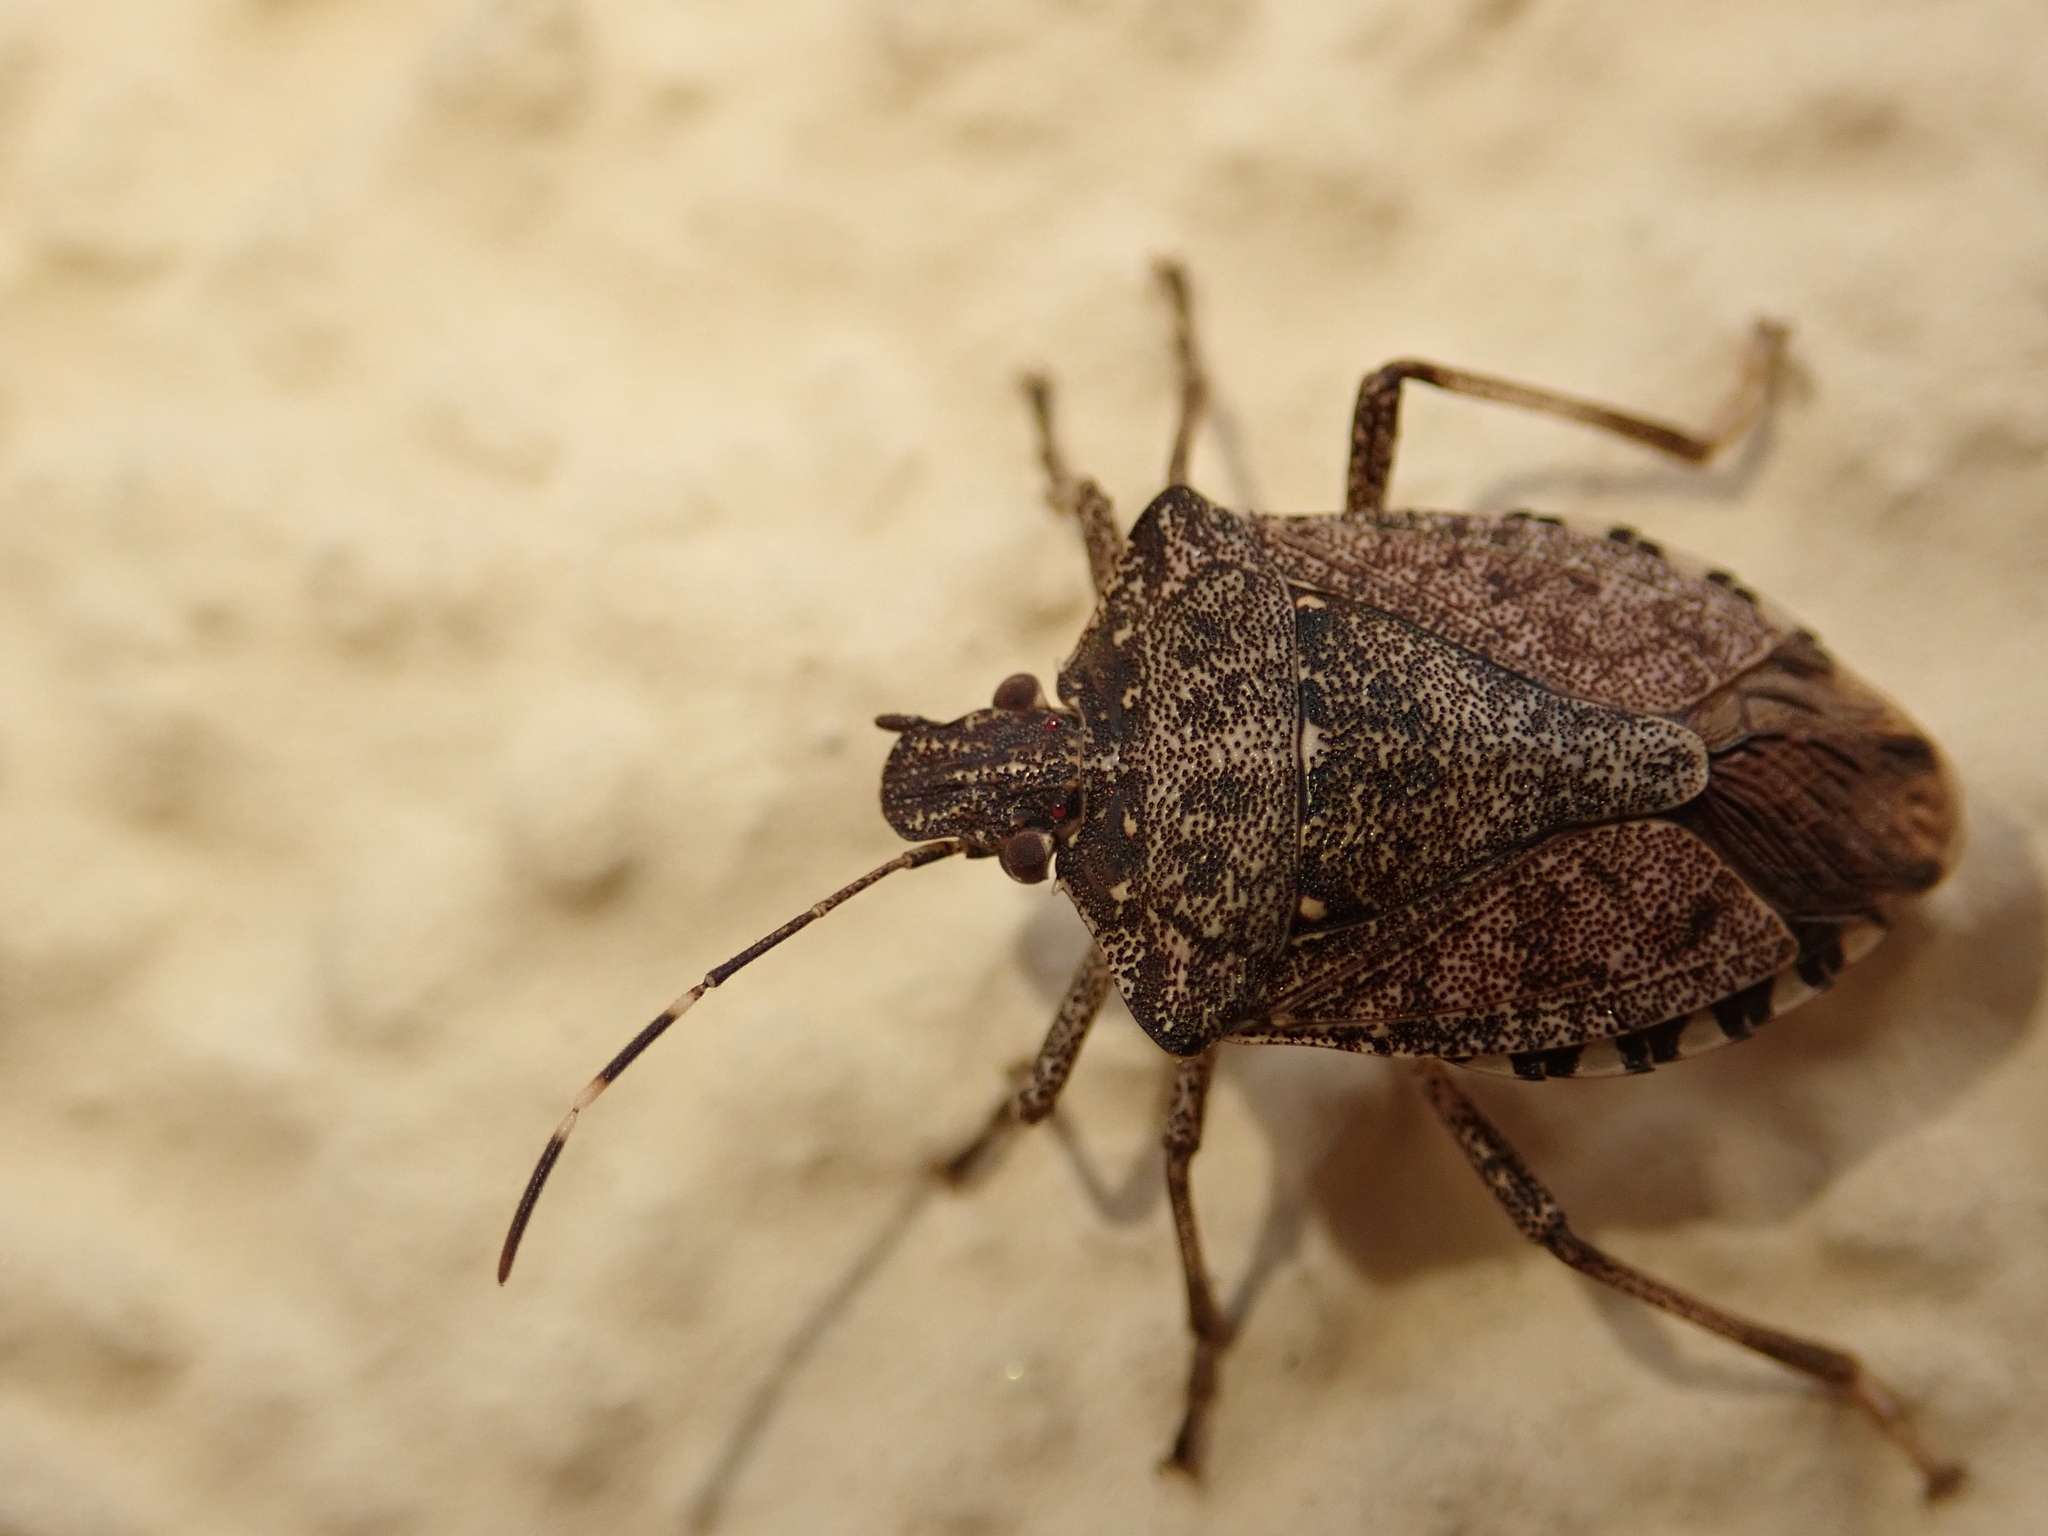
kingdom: Animalia
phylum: Arthropoda
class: Insecta
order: Hemiptera
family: Pentatomidae
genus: Halyomorpha
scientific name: Halyomorpha halys
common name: Brown marmorated stink bug
